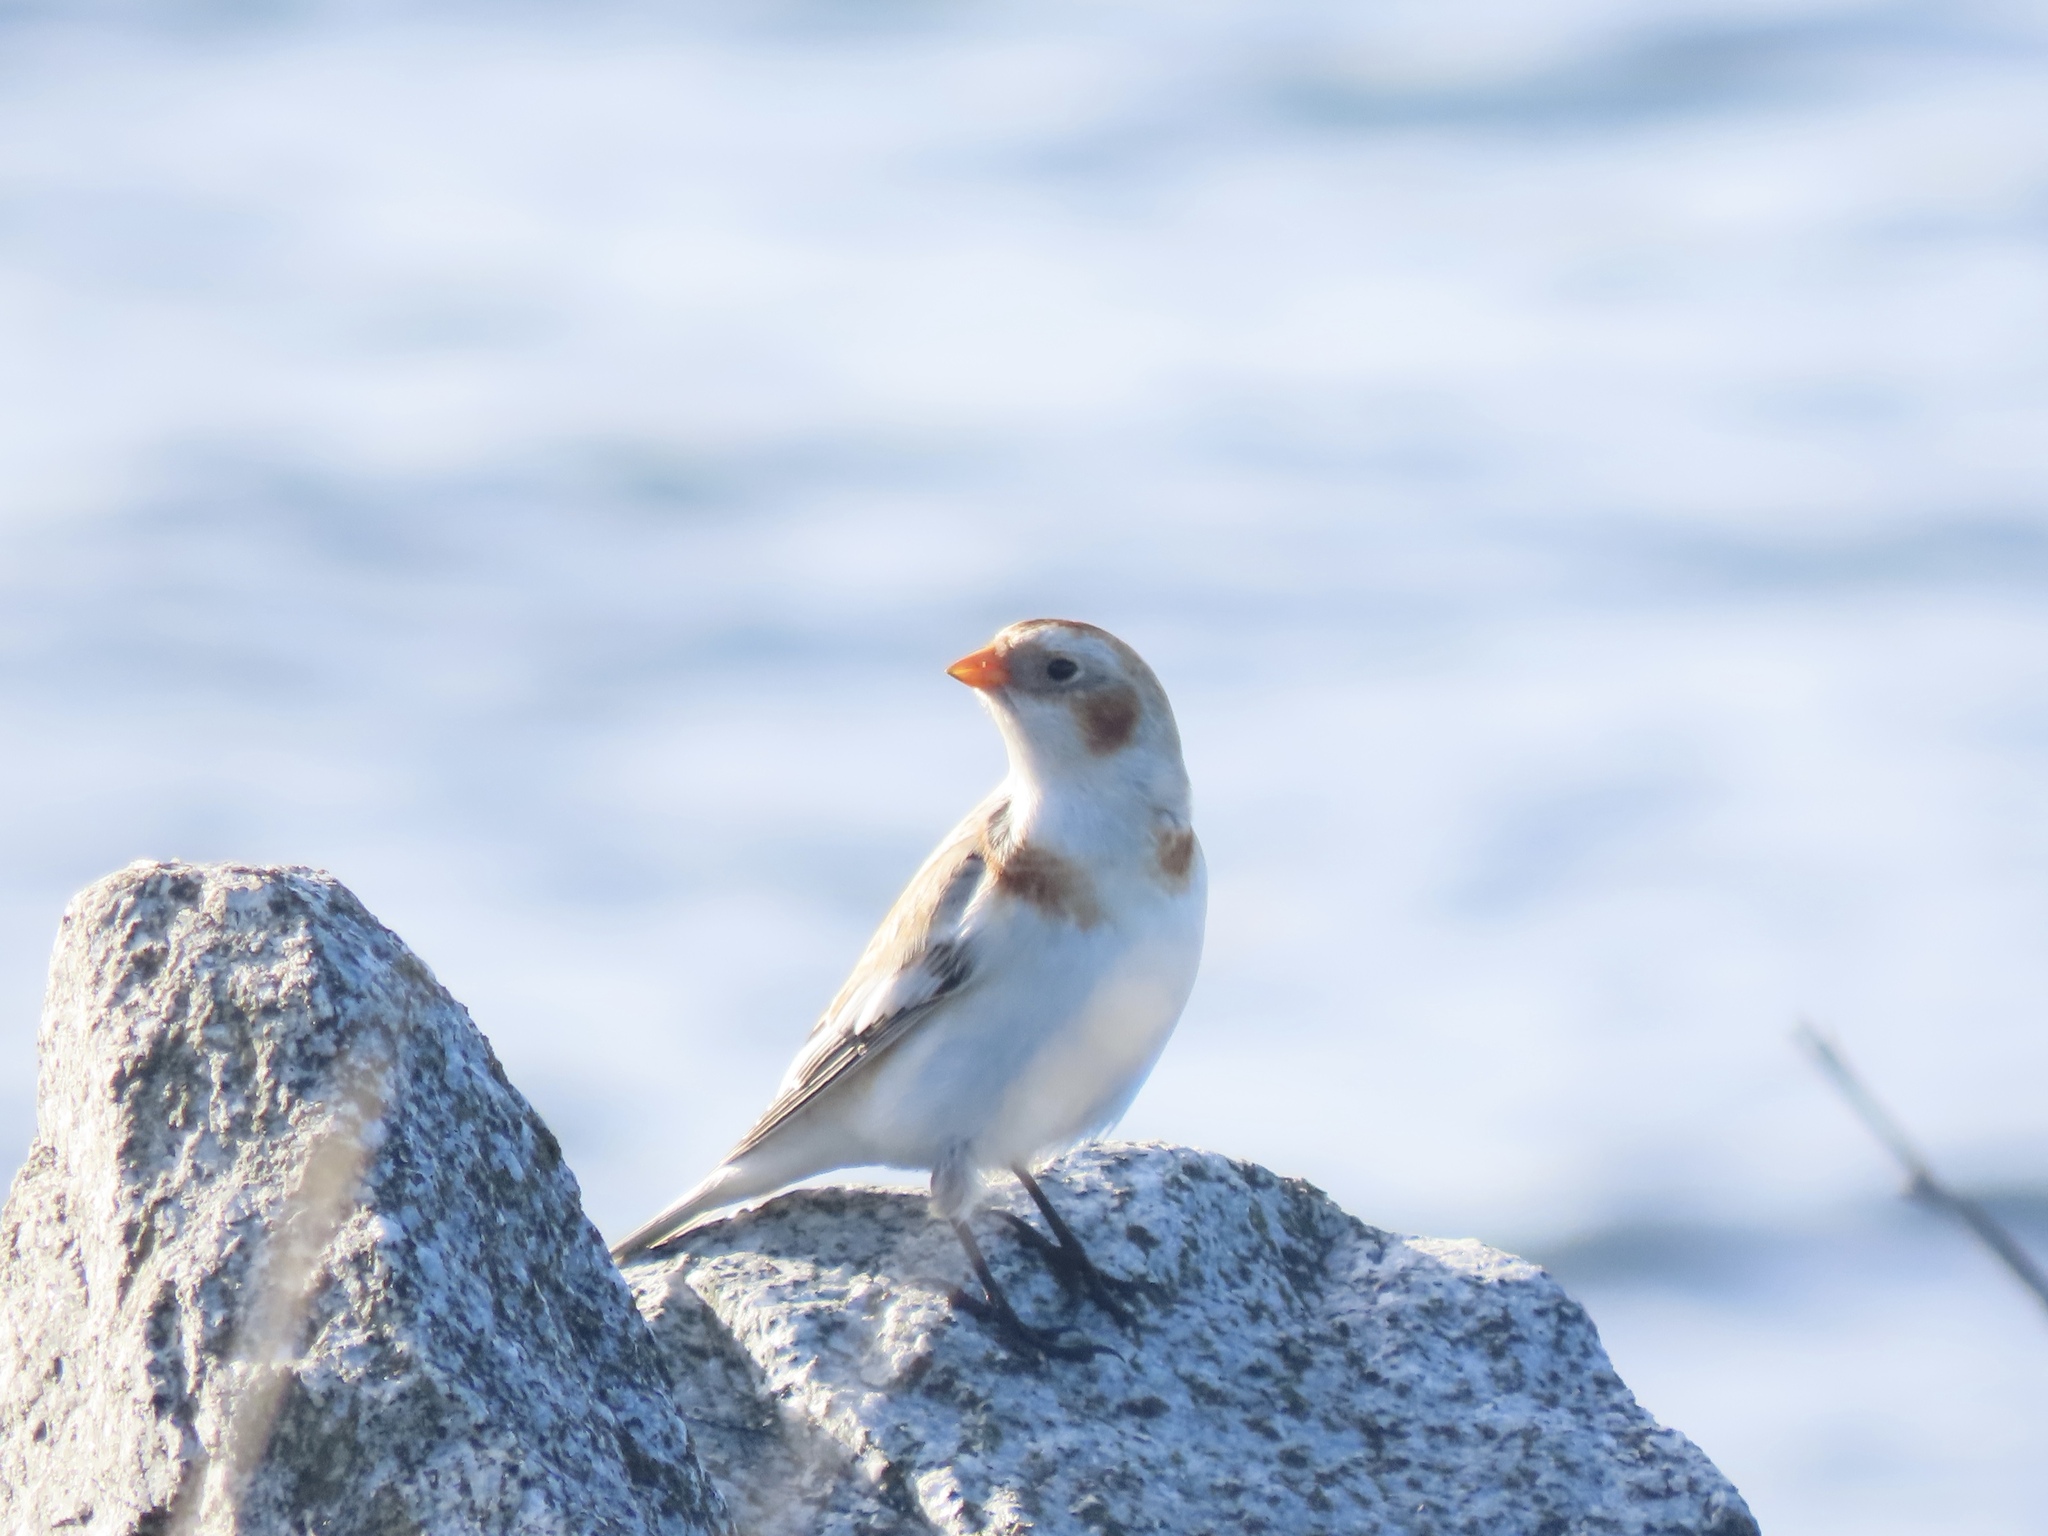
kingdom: Animalia
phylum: Chordata
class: Aves
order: Passeriformes
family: Calcariidae
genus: Plectrophenax
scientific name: Plectrophenax nivalis
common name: Snow bunting
